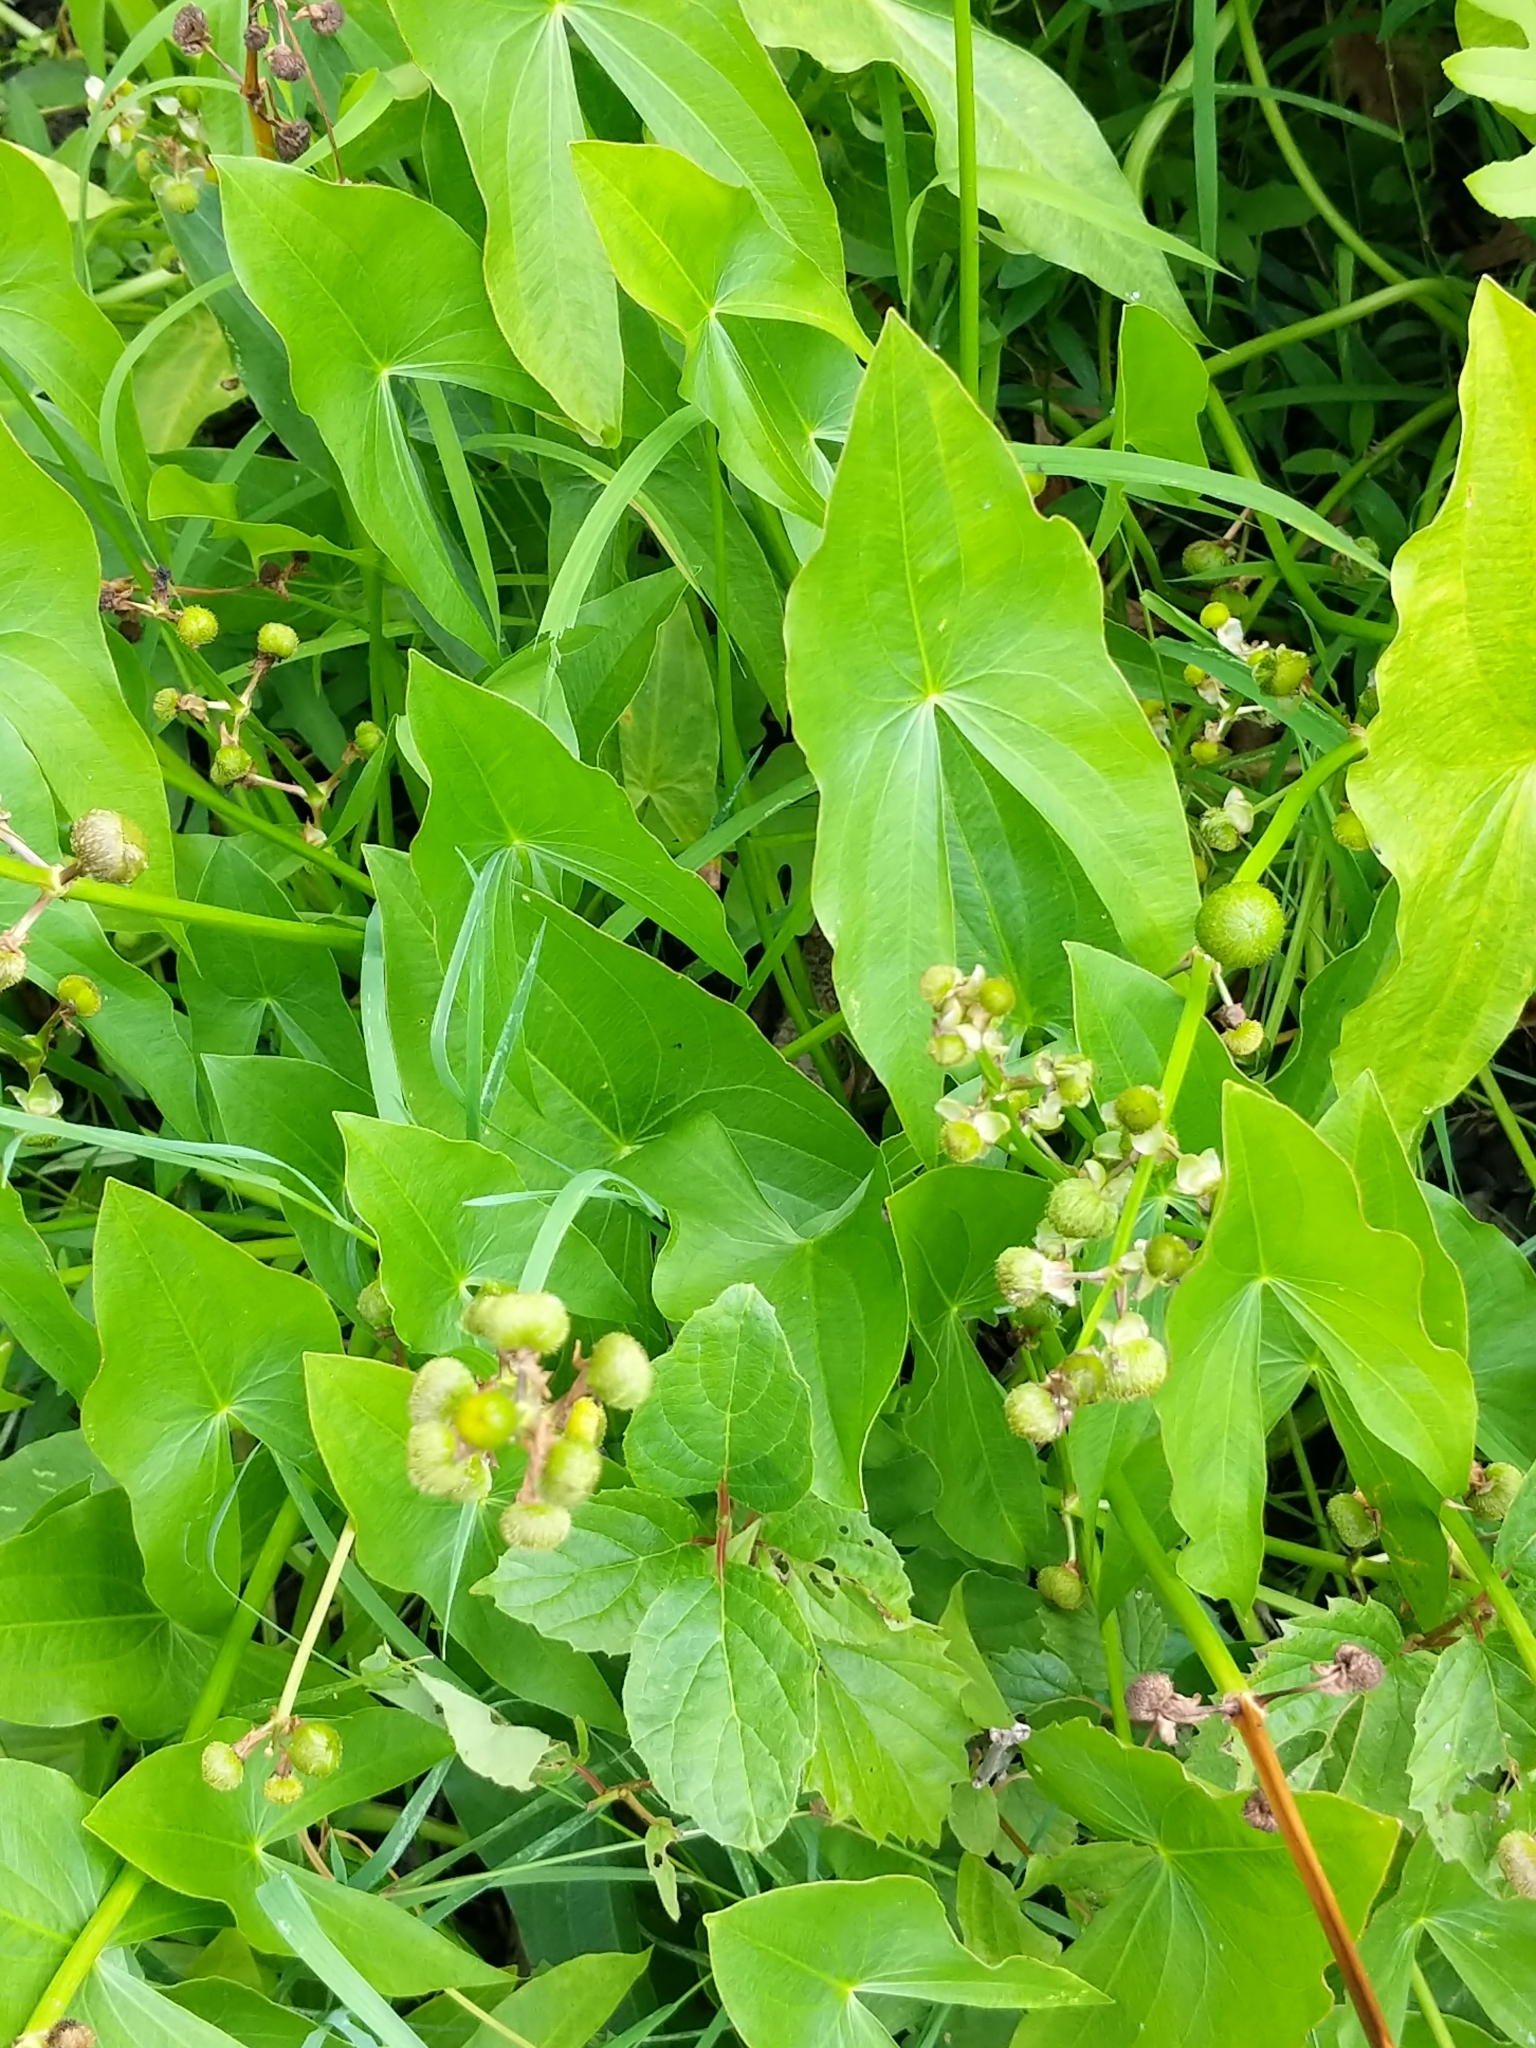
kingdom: Plantae
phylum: Tracheophyta
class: Liliopsida
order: Alismatales
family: Alismataceae
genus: Sagittaria
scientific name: Sagittaria latifolia
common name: Duck-potato
